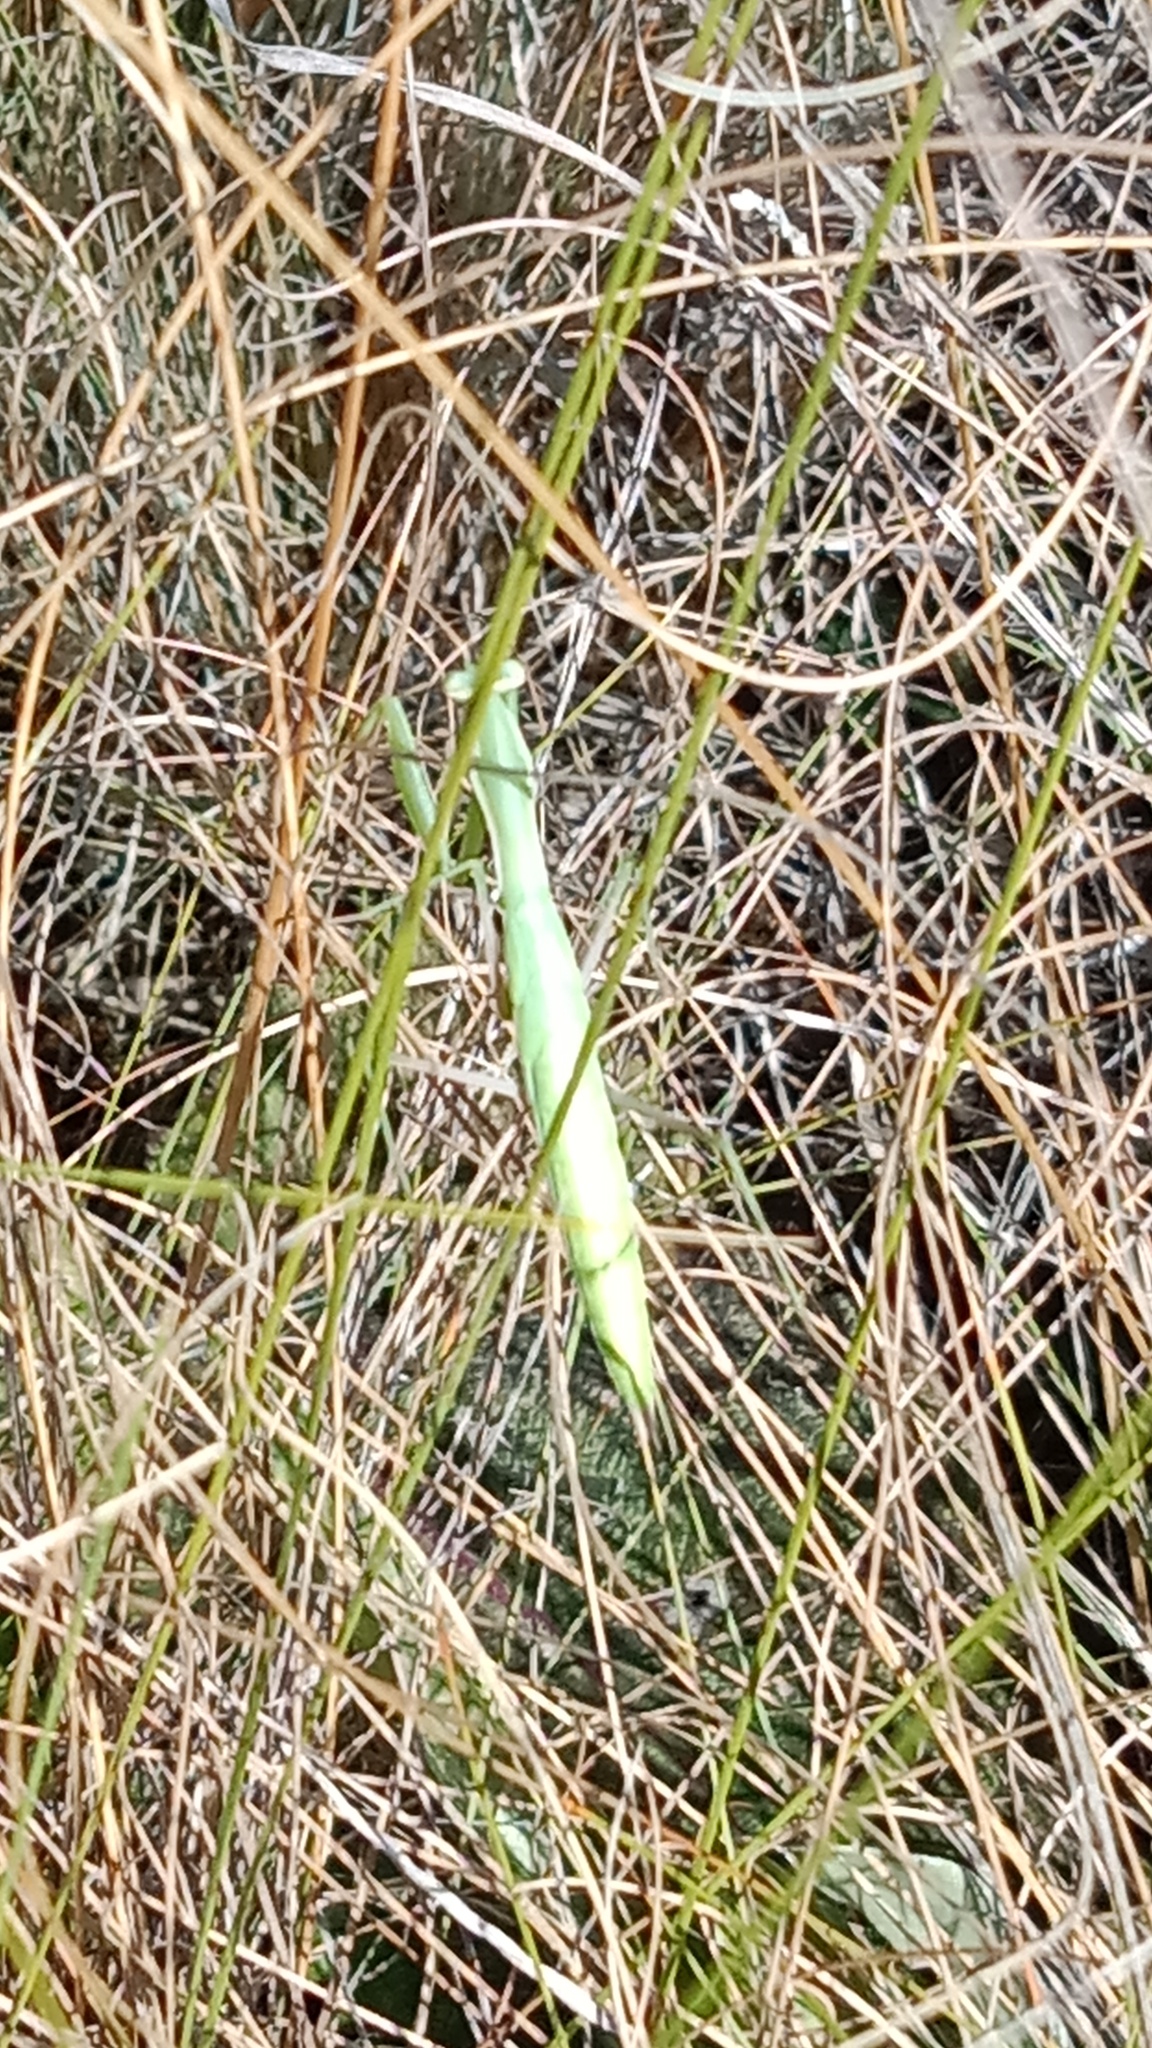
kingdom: Animalia
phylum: Arthropoda
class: Insecta
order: Mantodea
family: Mantidae
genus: Mantis
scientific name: Mantis religiosa
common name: Praying mantis
